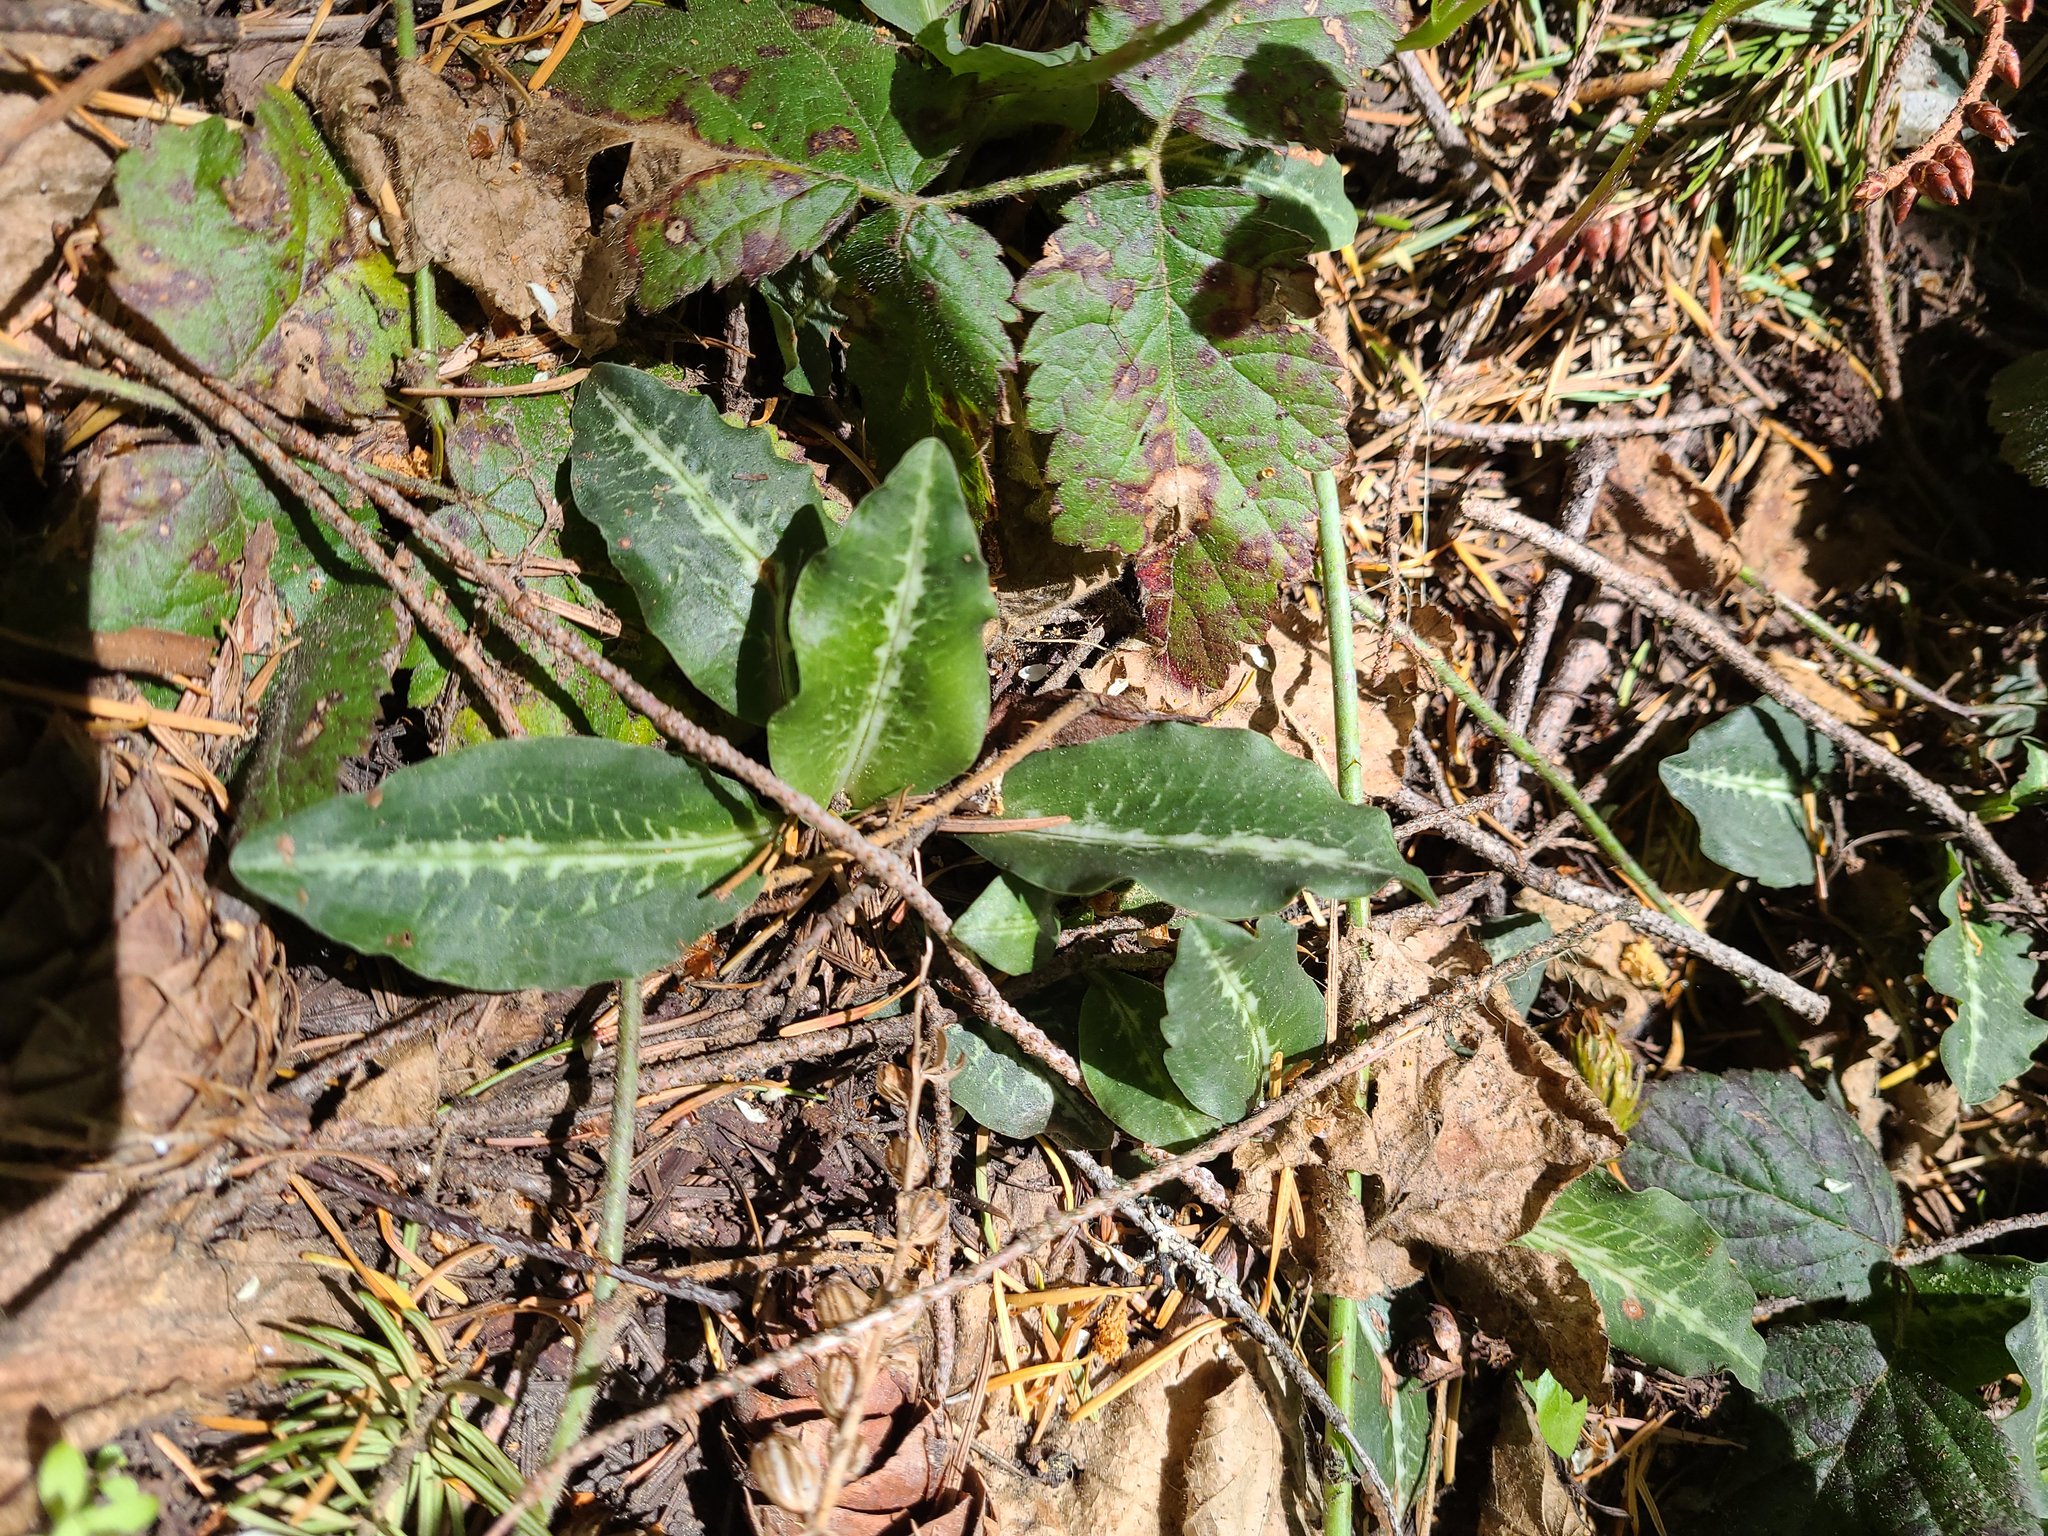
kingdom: Plantae
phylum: Tracheophyta
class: Liliopsida
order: Asparagales
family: Orchidaceae
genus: Goodyera
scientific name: Goodyera oblongifolia
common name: Giant rattlesnake-plantain
